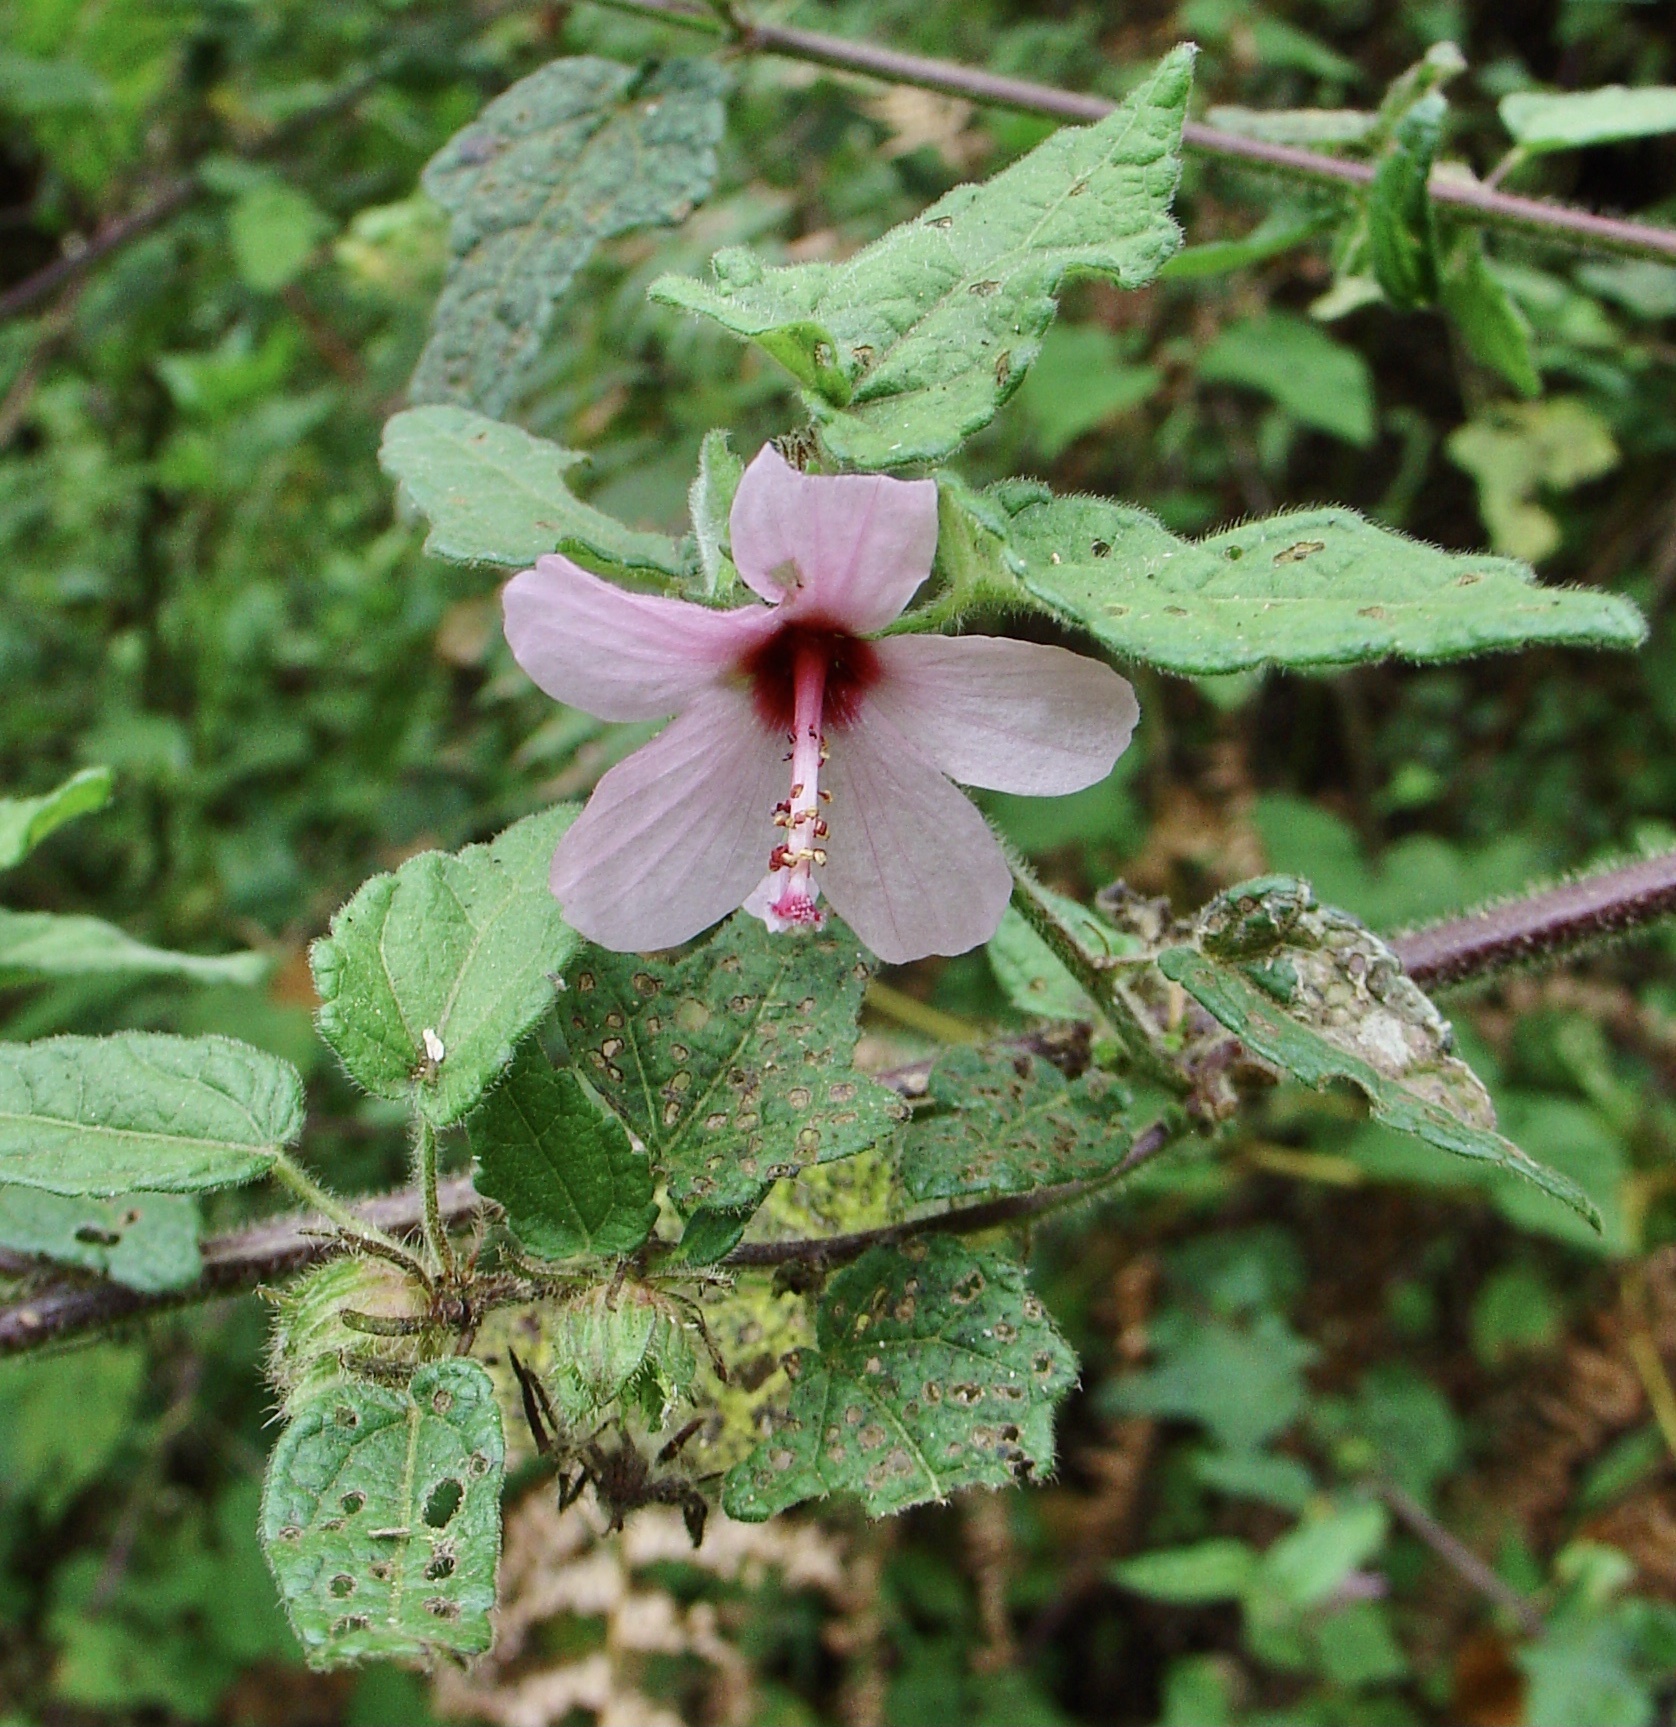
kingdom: Plantae
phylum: Tracheophyta
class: Magnoliopsida
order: Malvales
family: Malvaceae
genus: Pavonia
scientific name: Pavonia urens
